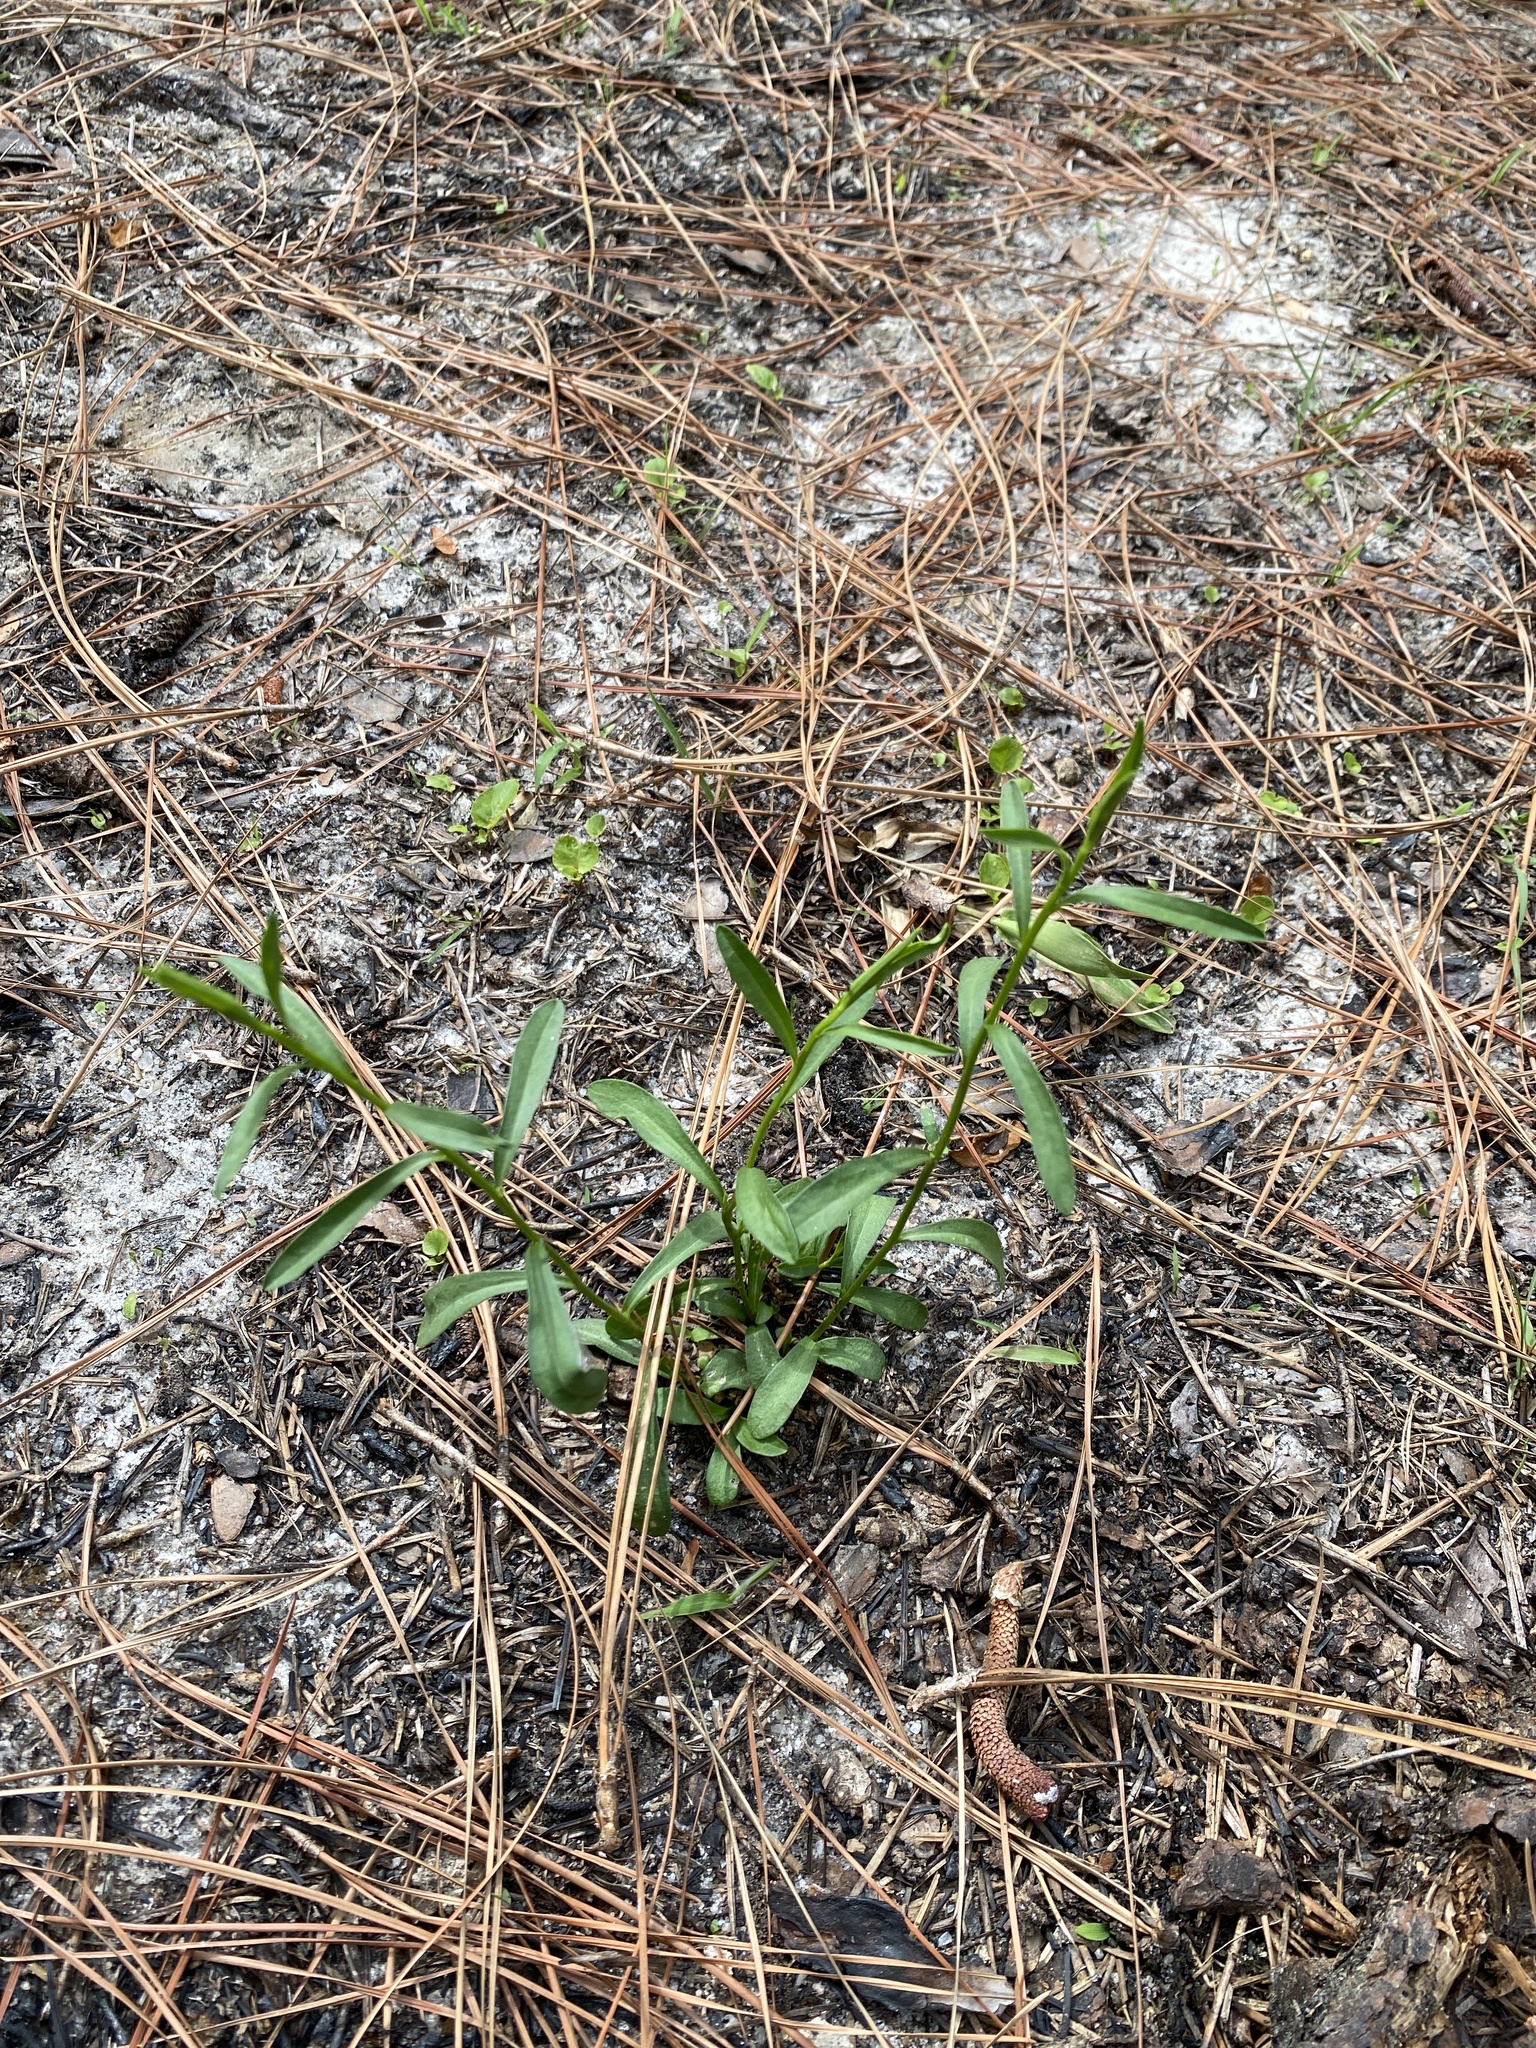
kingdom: Plantae
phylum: Tracheophyta
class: Magnoliopsida
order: Asterales
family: Asteraceae
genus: Sericocarpus
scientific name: Sericocarpus linifolius
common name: Narrow-leaf aster
